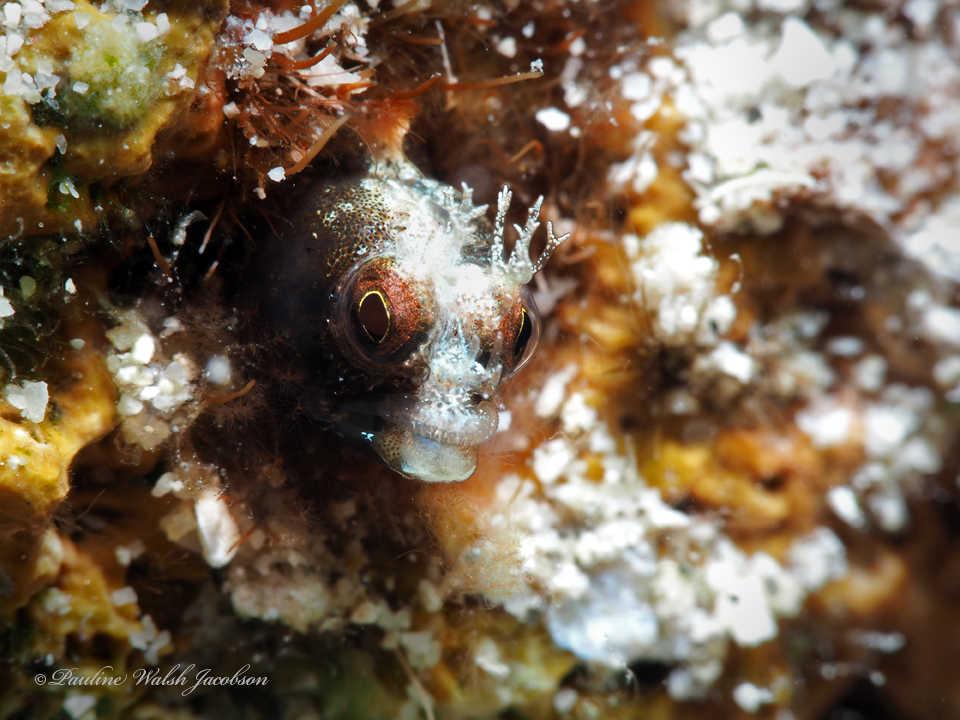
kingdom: Animalia
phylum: Chordata
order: Perciformes
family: Chaenopsidae
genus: Acanthemblemaria
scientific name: Acanthemblemaria aspera
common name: Roughhead blenny
